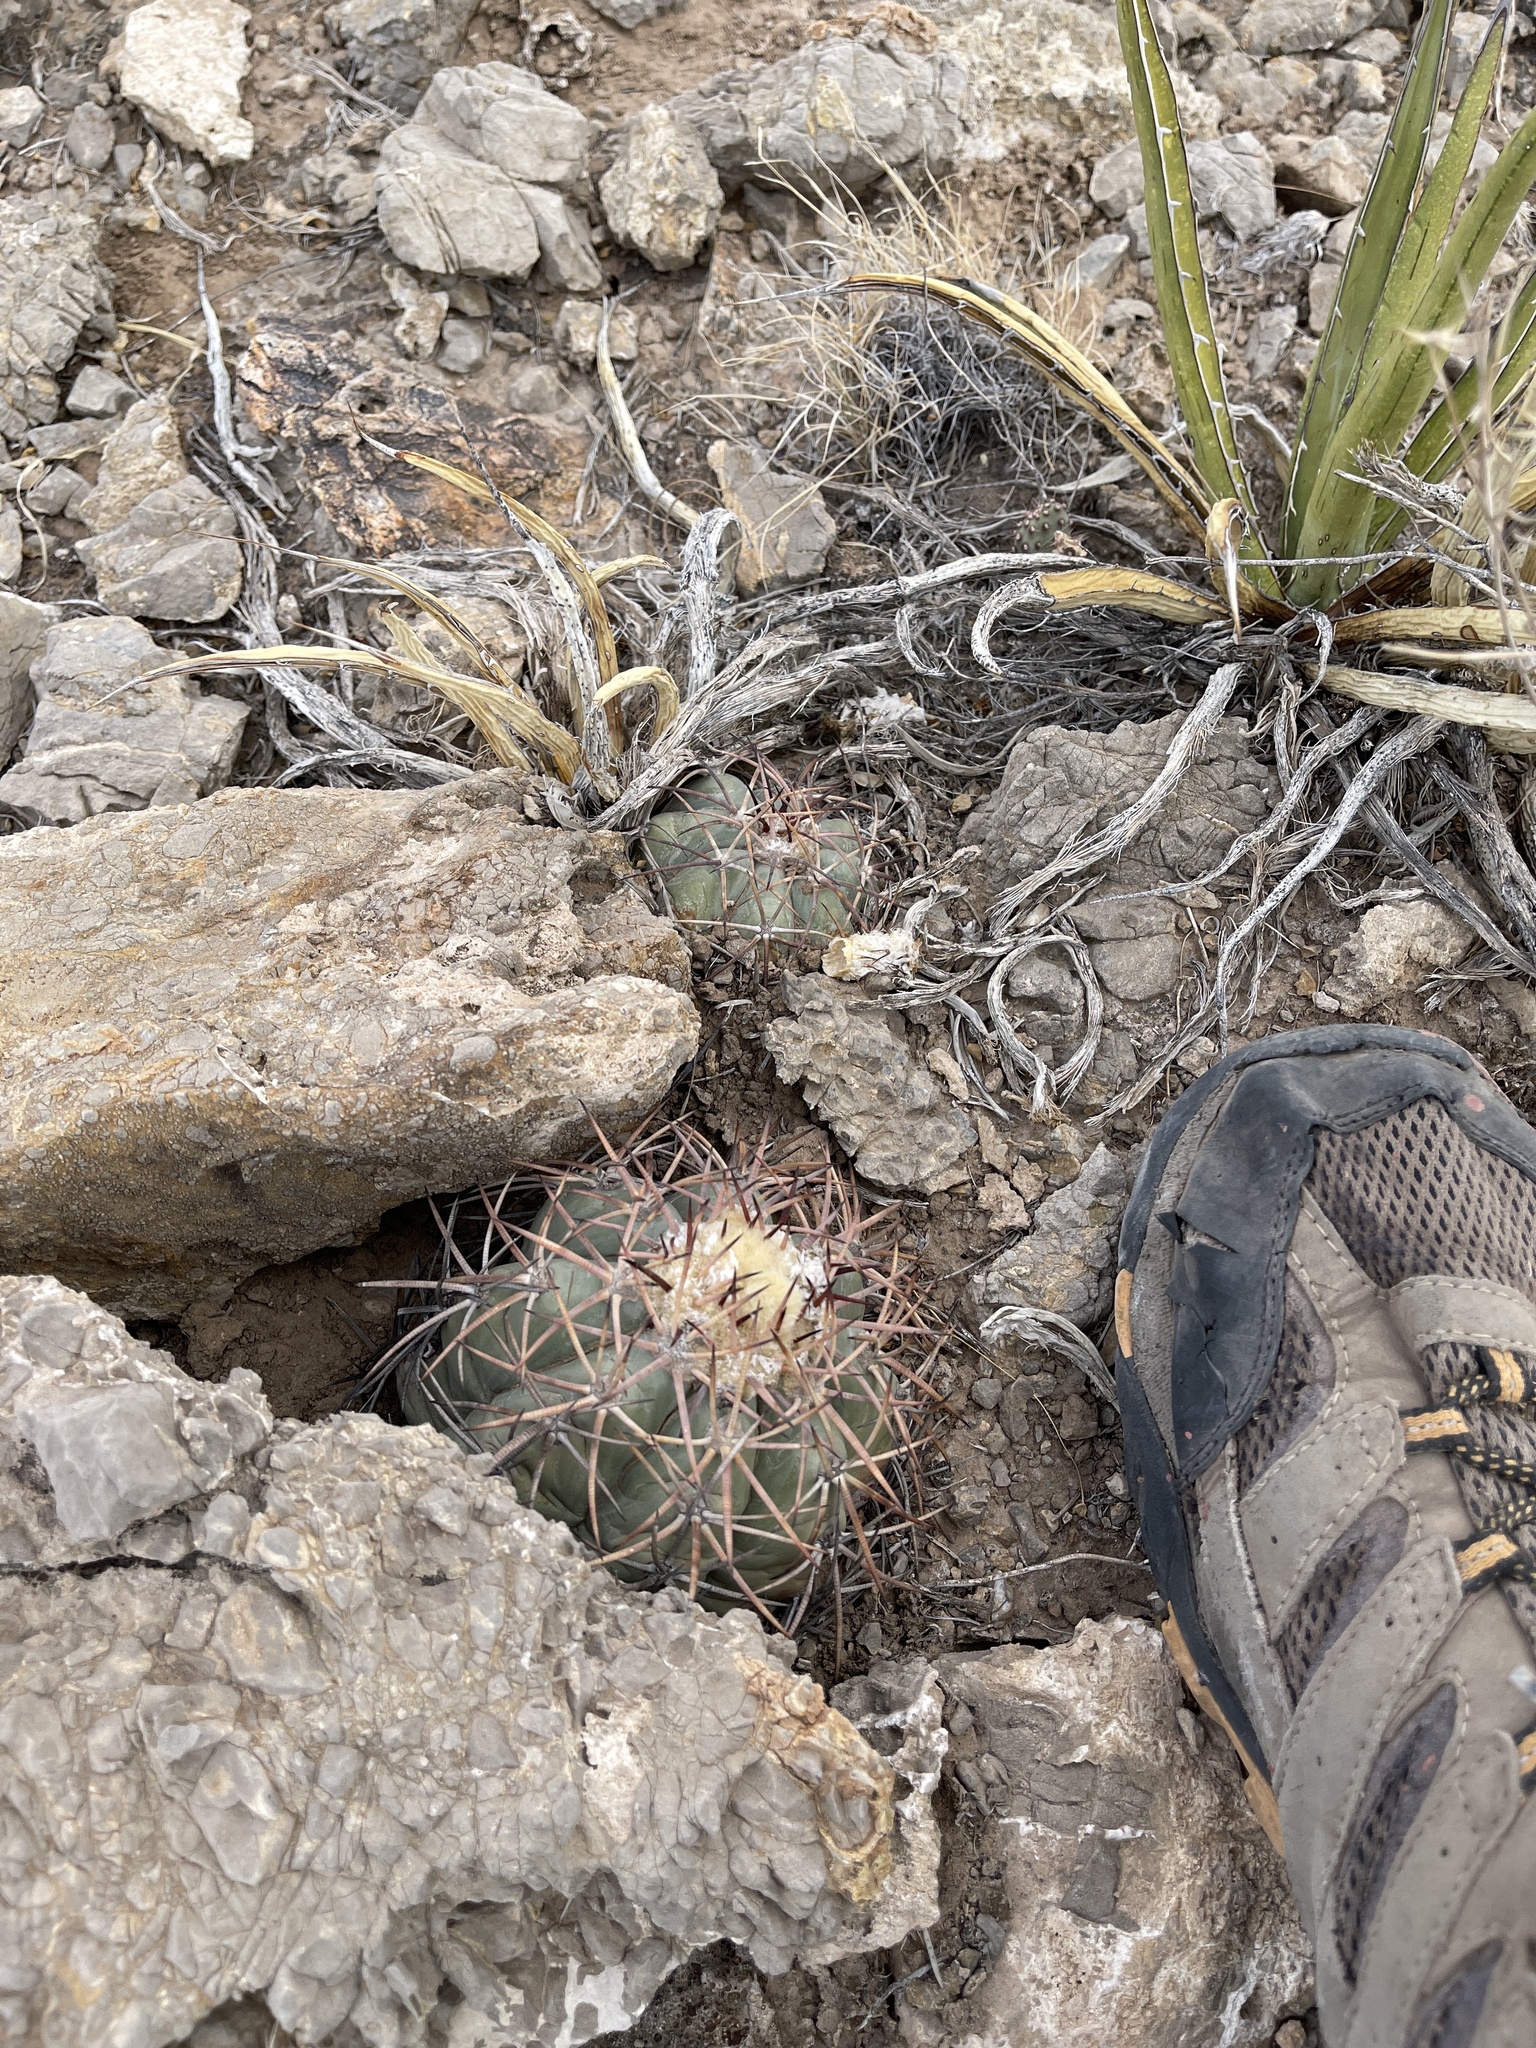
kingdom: Plantae
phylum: Tracheophyta
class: Magnoliopsida
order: Caryophyllales
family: Cactaceae
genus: Echinocactus
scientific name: Echinocactus horizonthalonius
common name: Devilshead
